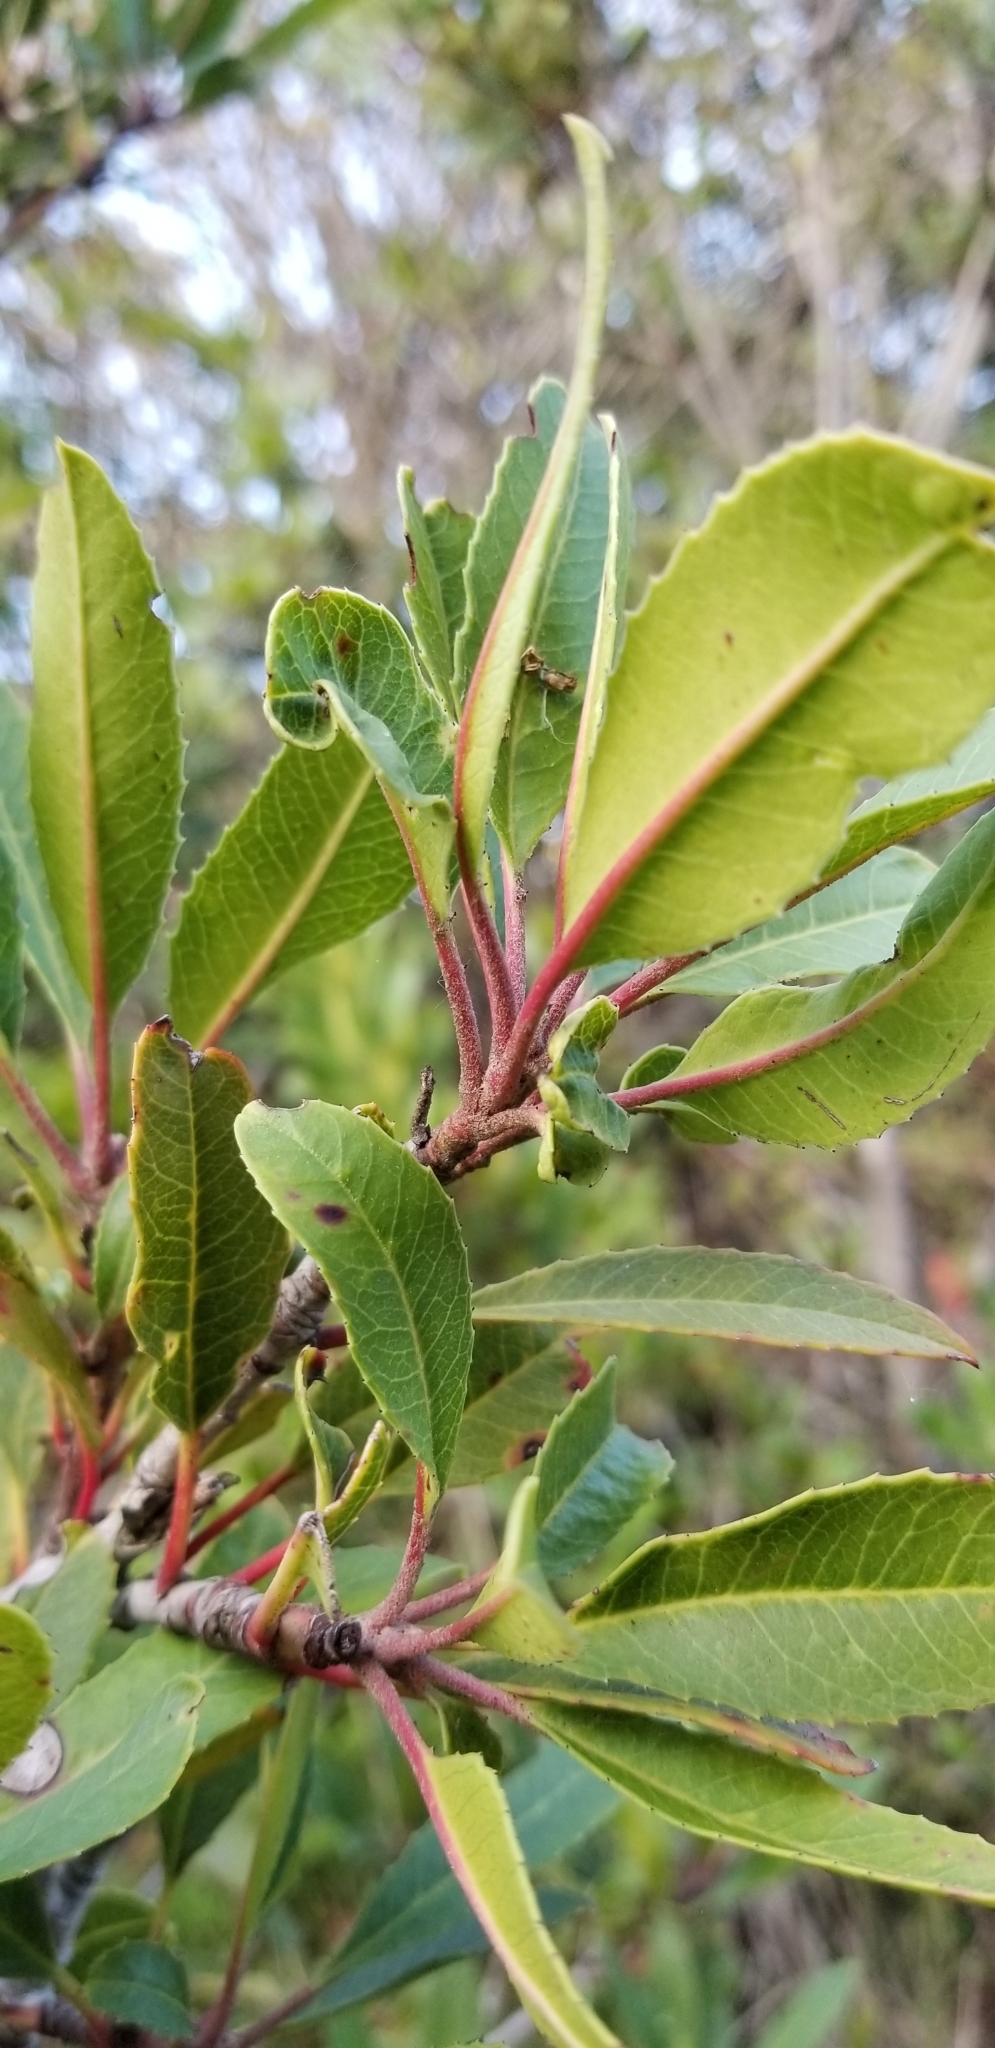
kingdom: Plantae
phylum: Tracheophyta
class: Magnoliopsida
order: Rosales
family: Rosaceae
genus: Heteromeles
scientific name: Heteromeles arbutifolia
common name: California-holly
